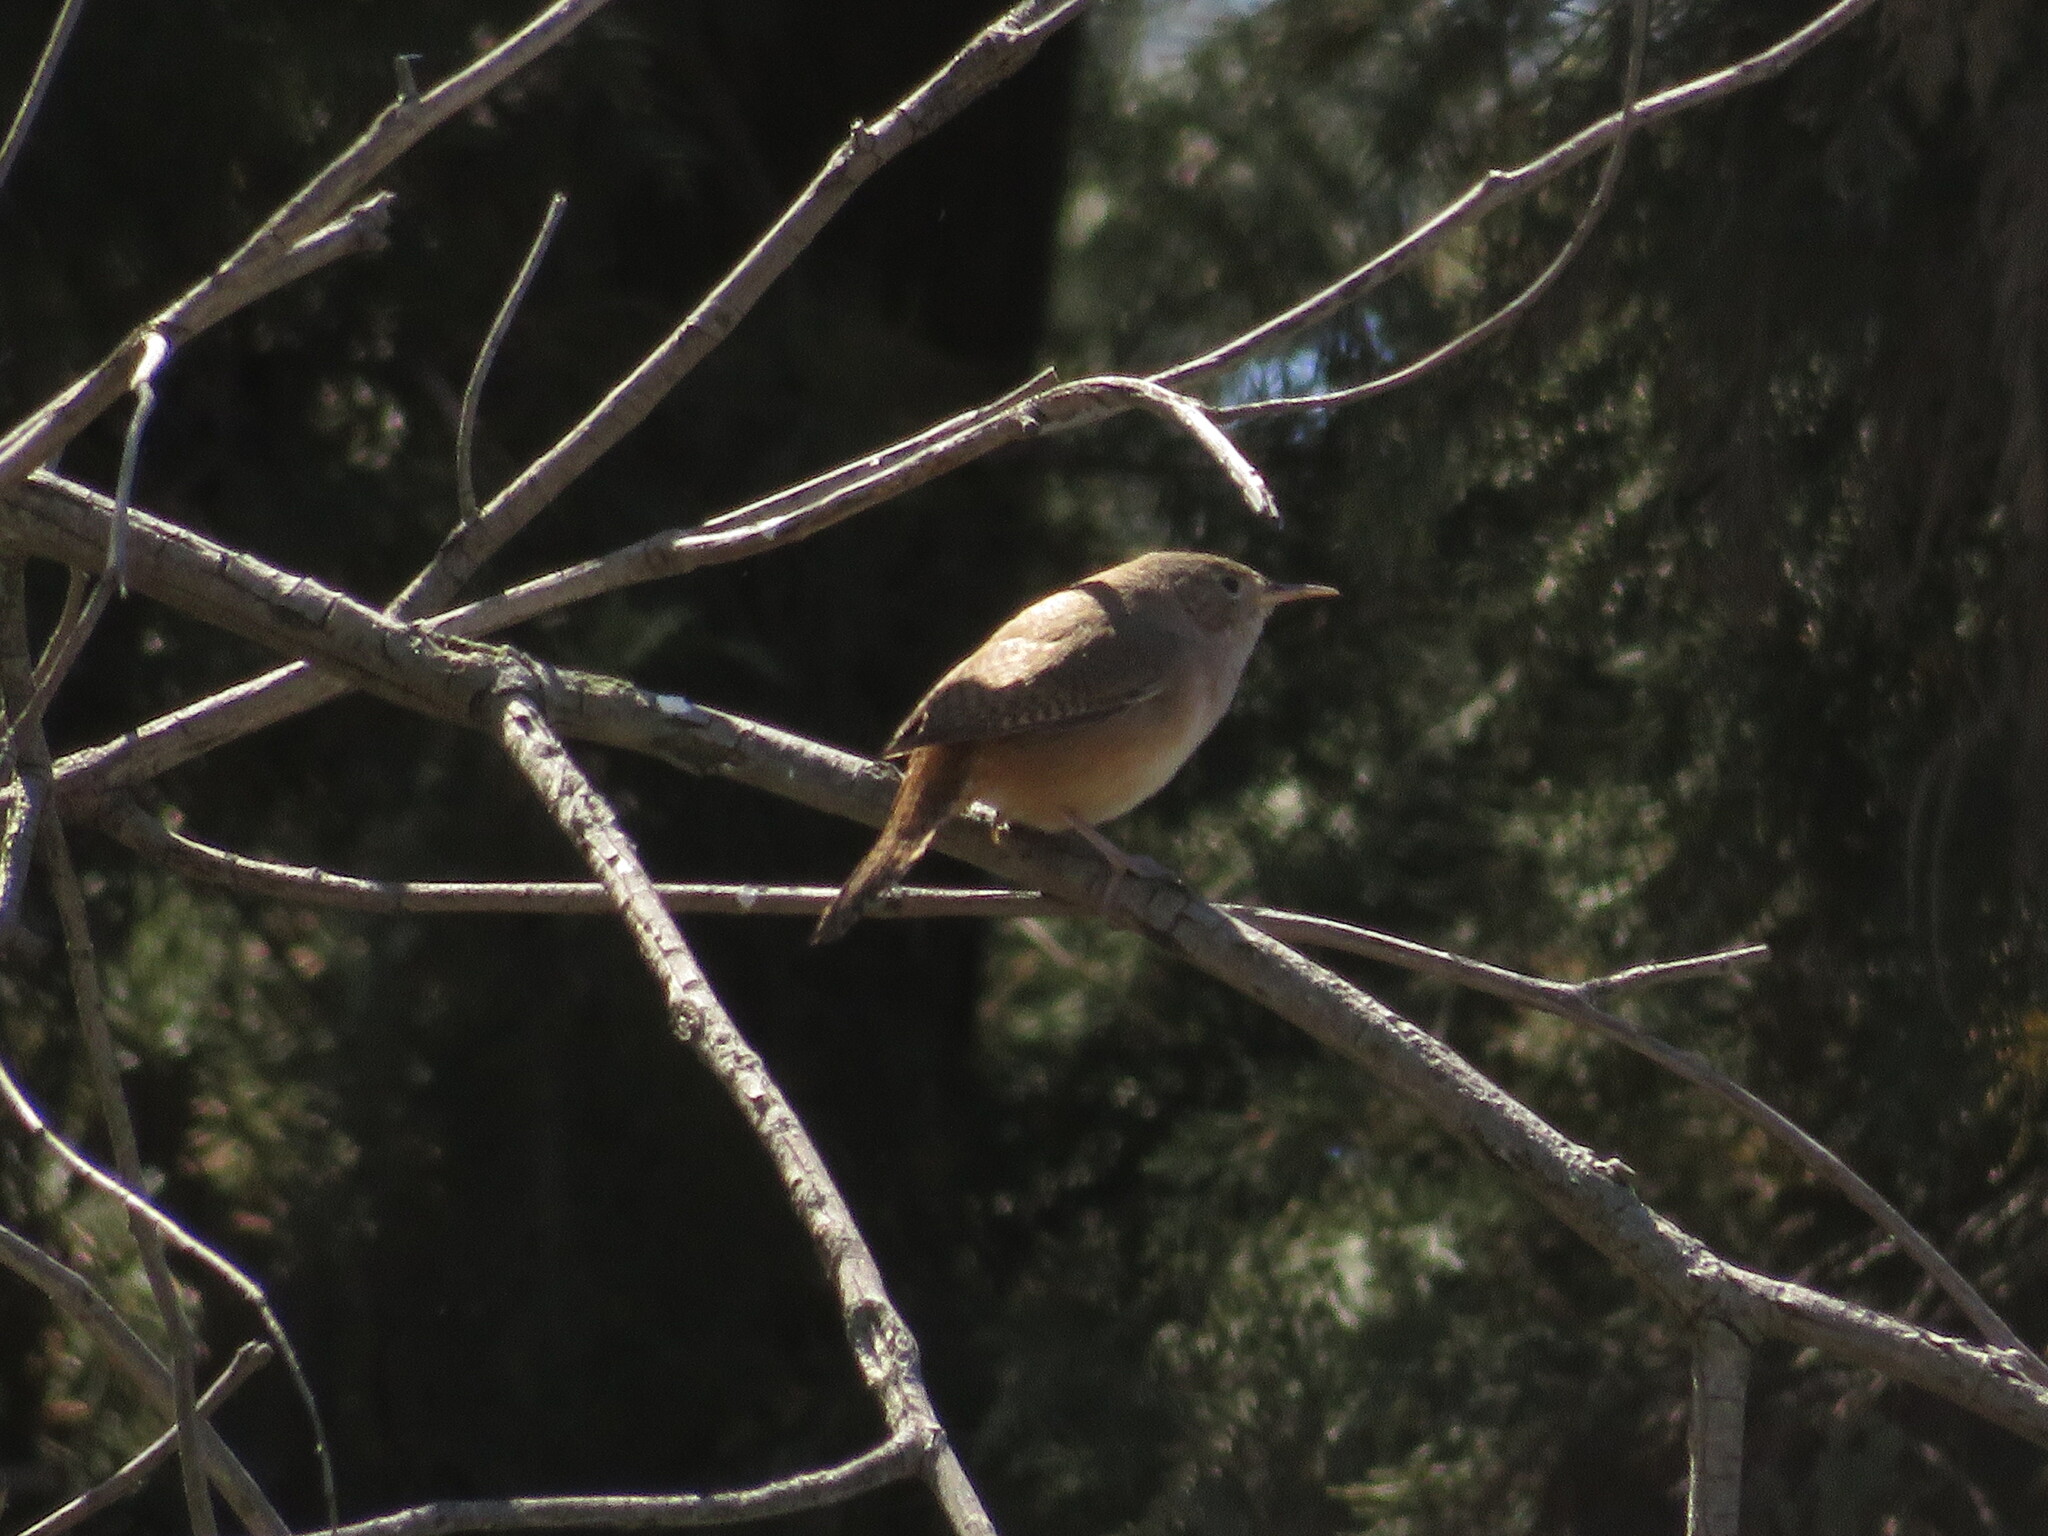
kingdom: Animalia
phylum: Chordata
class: Aves
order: Passeriformes
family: Troglodytidae
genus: Troglodytes
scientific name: Troglodytes aedon
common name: House wren
